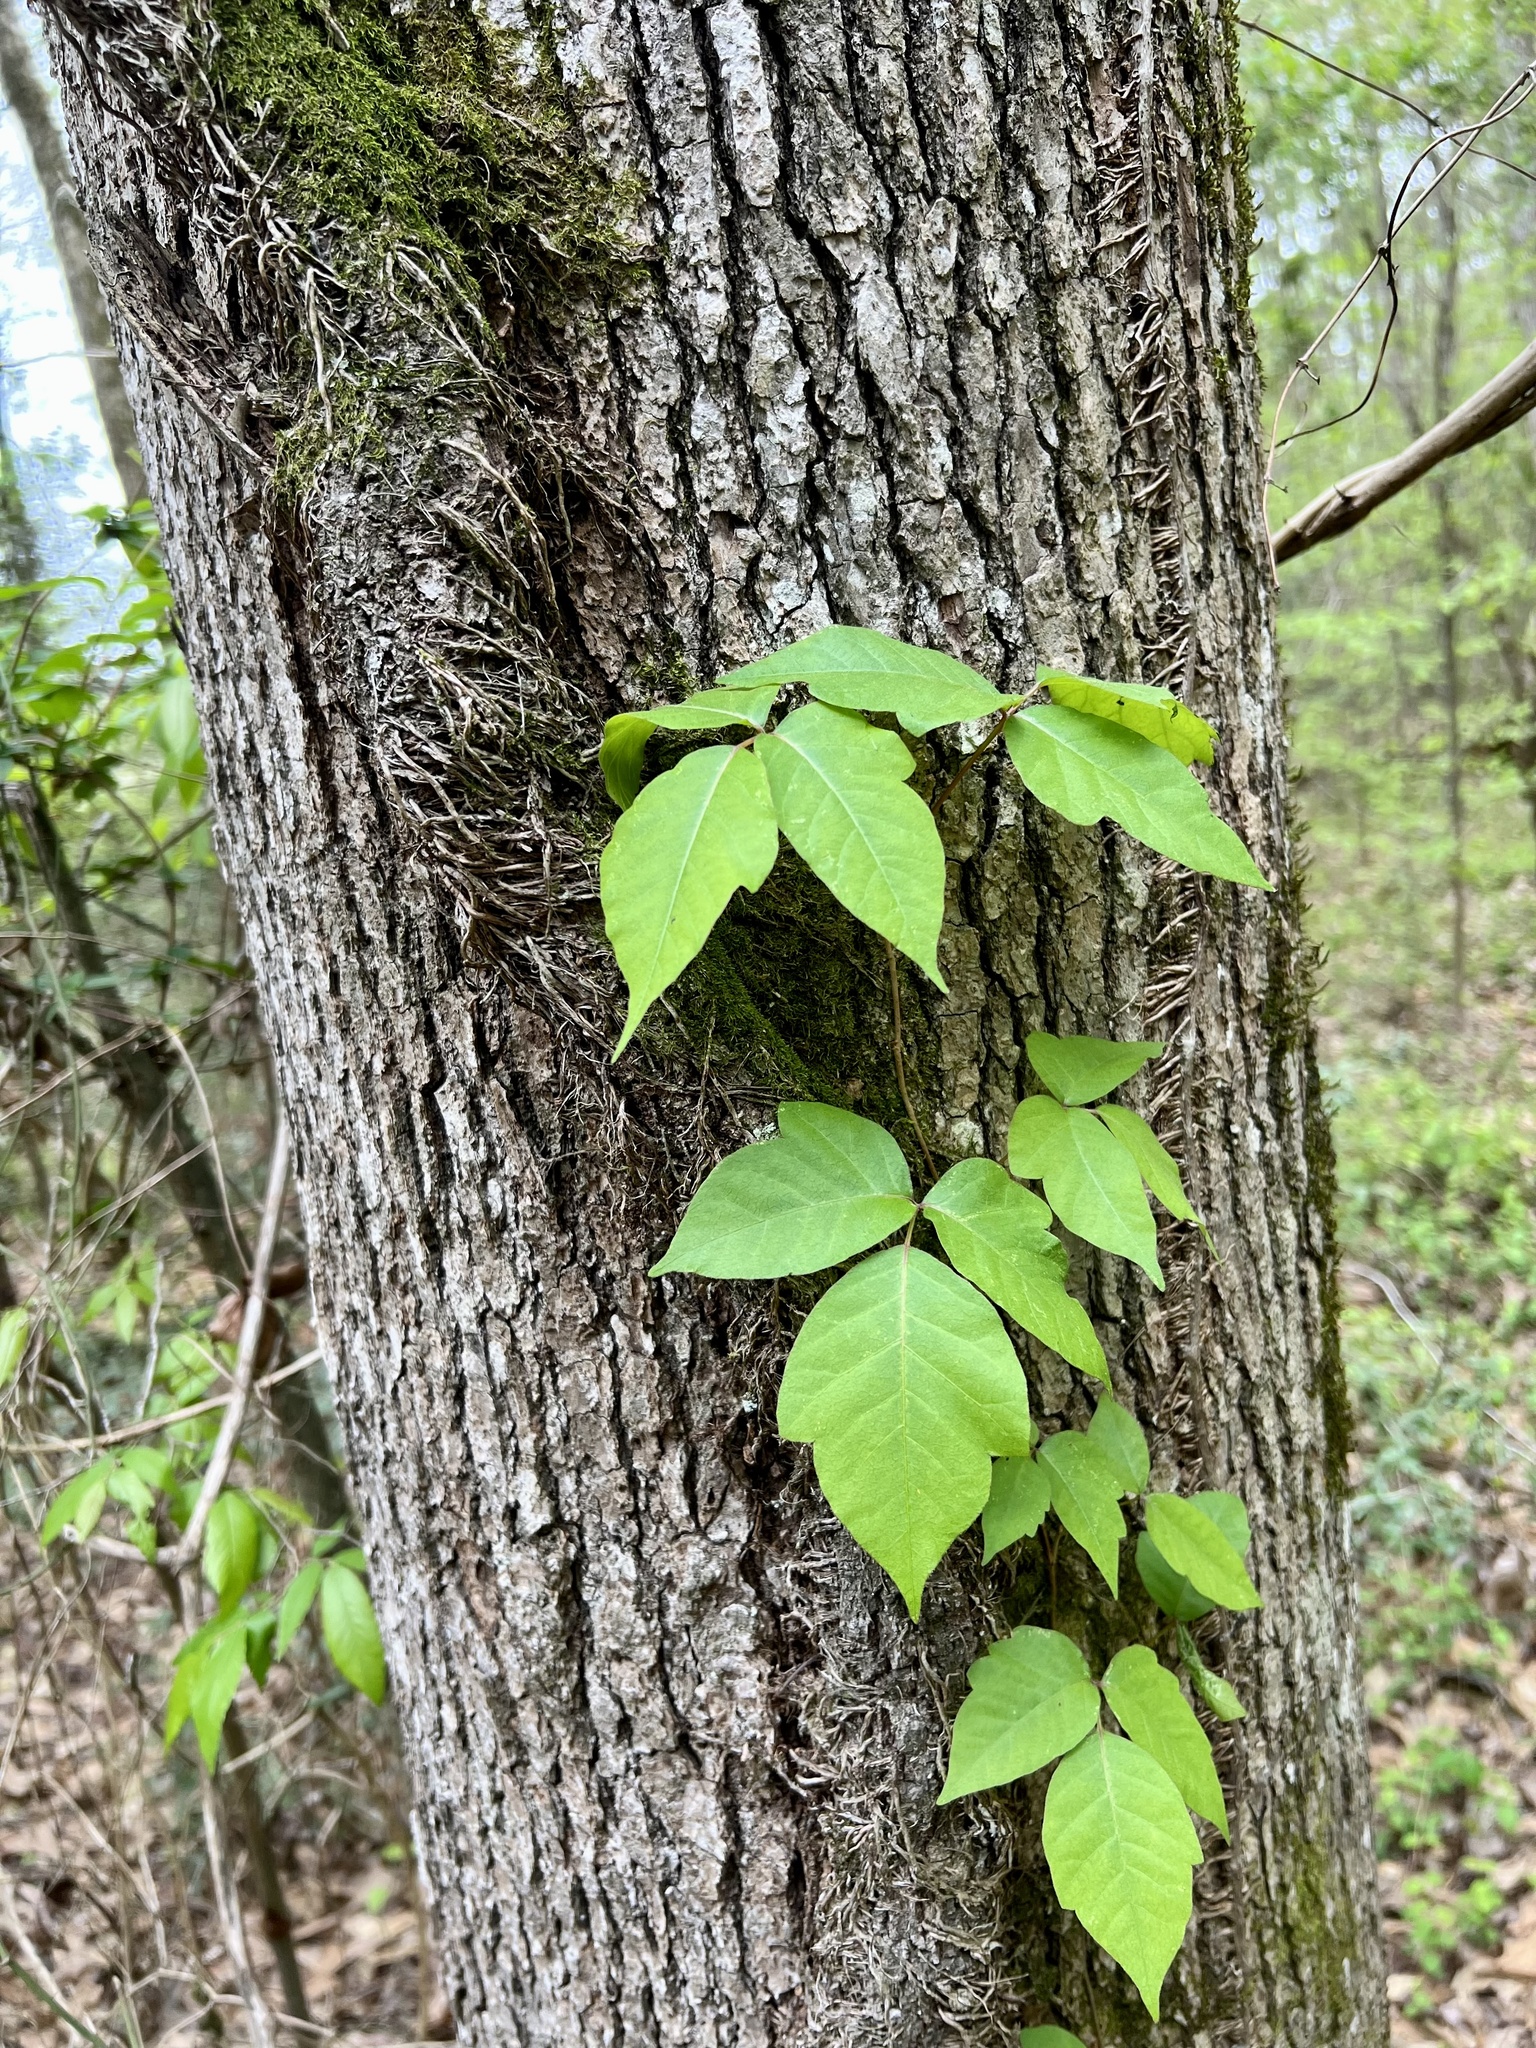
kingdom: Plantae
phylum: Tracheophyta
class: Magnoliopsida
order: Sapindales
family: Anacardiaceae
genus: Toxicodendron
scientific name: Toxicodendron radicans
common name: Poison ivy
